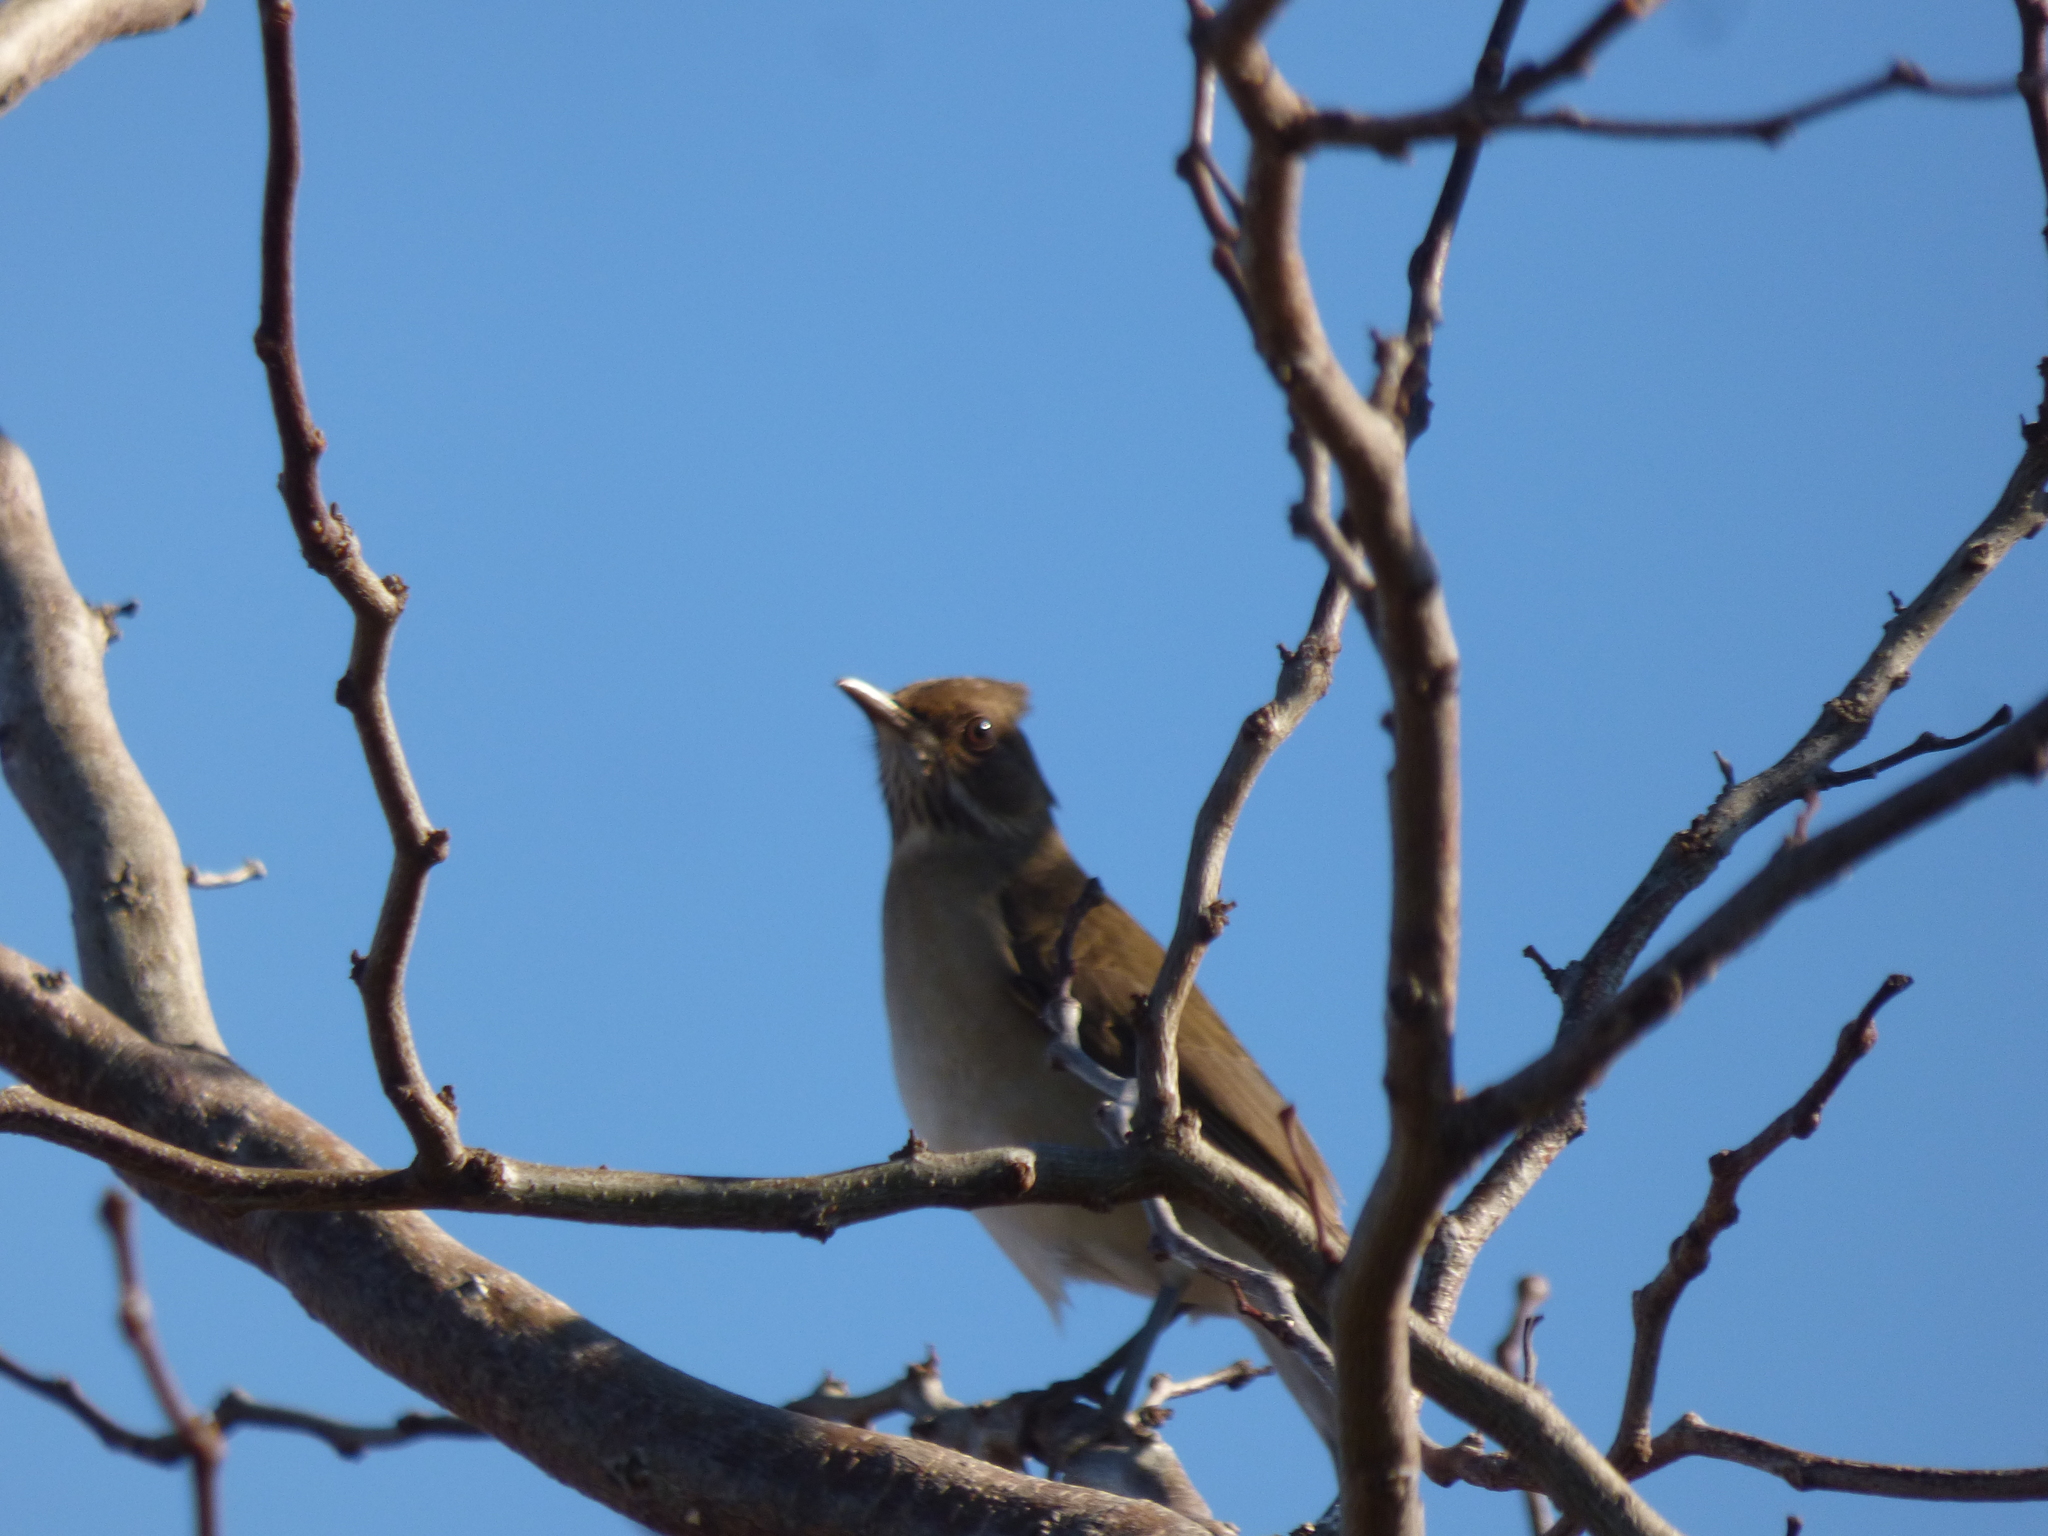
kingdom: Animalia
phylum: Chordata
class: Aves
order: Passeriformes
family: Turdidae
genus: Turdus
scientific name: Turdus amaurochalinus
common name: Creamy-bellied thrush
